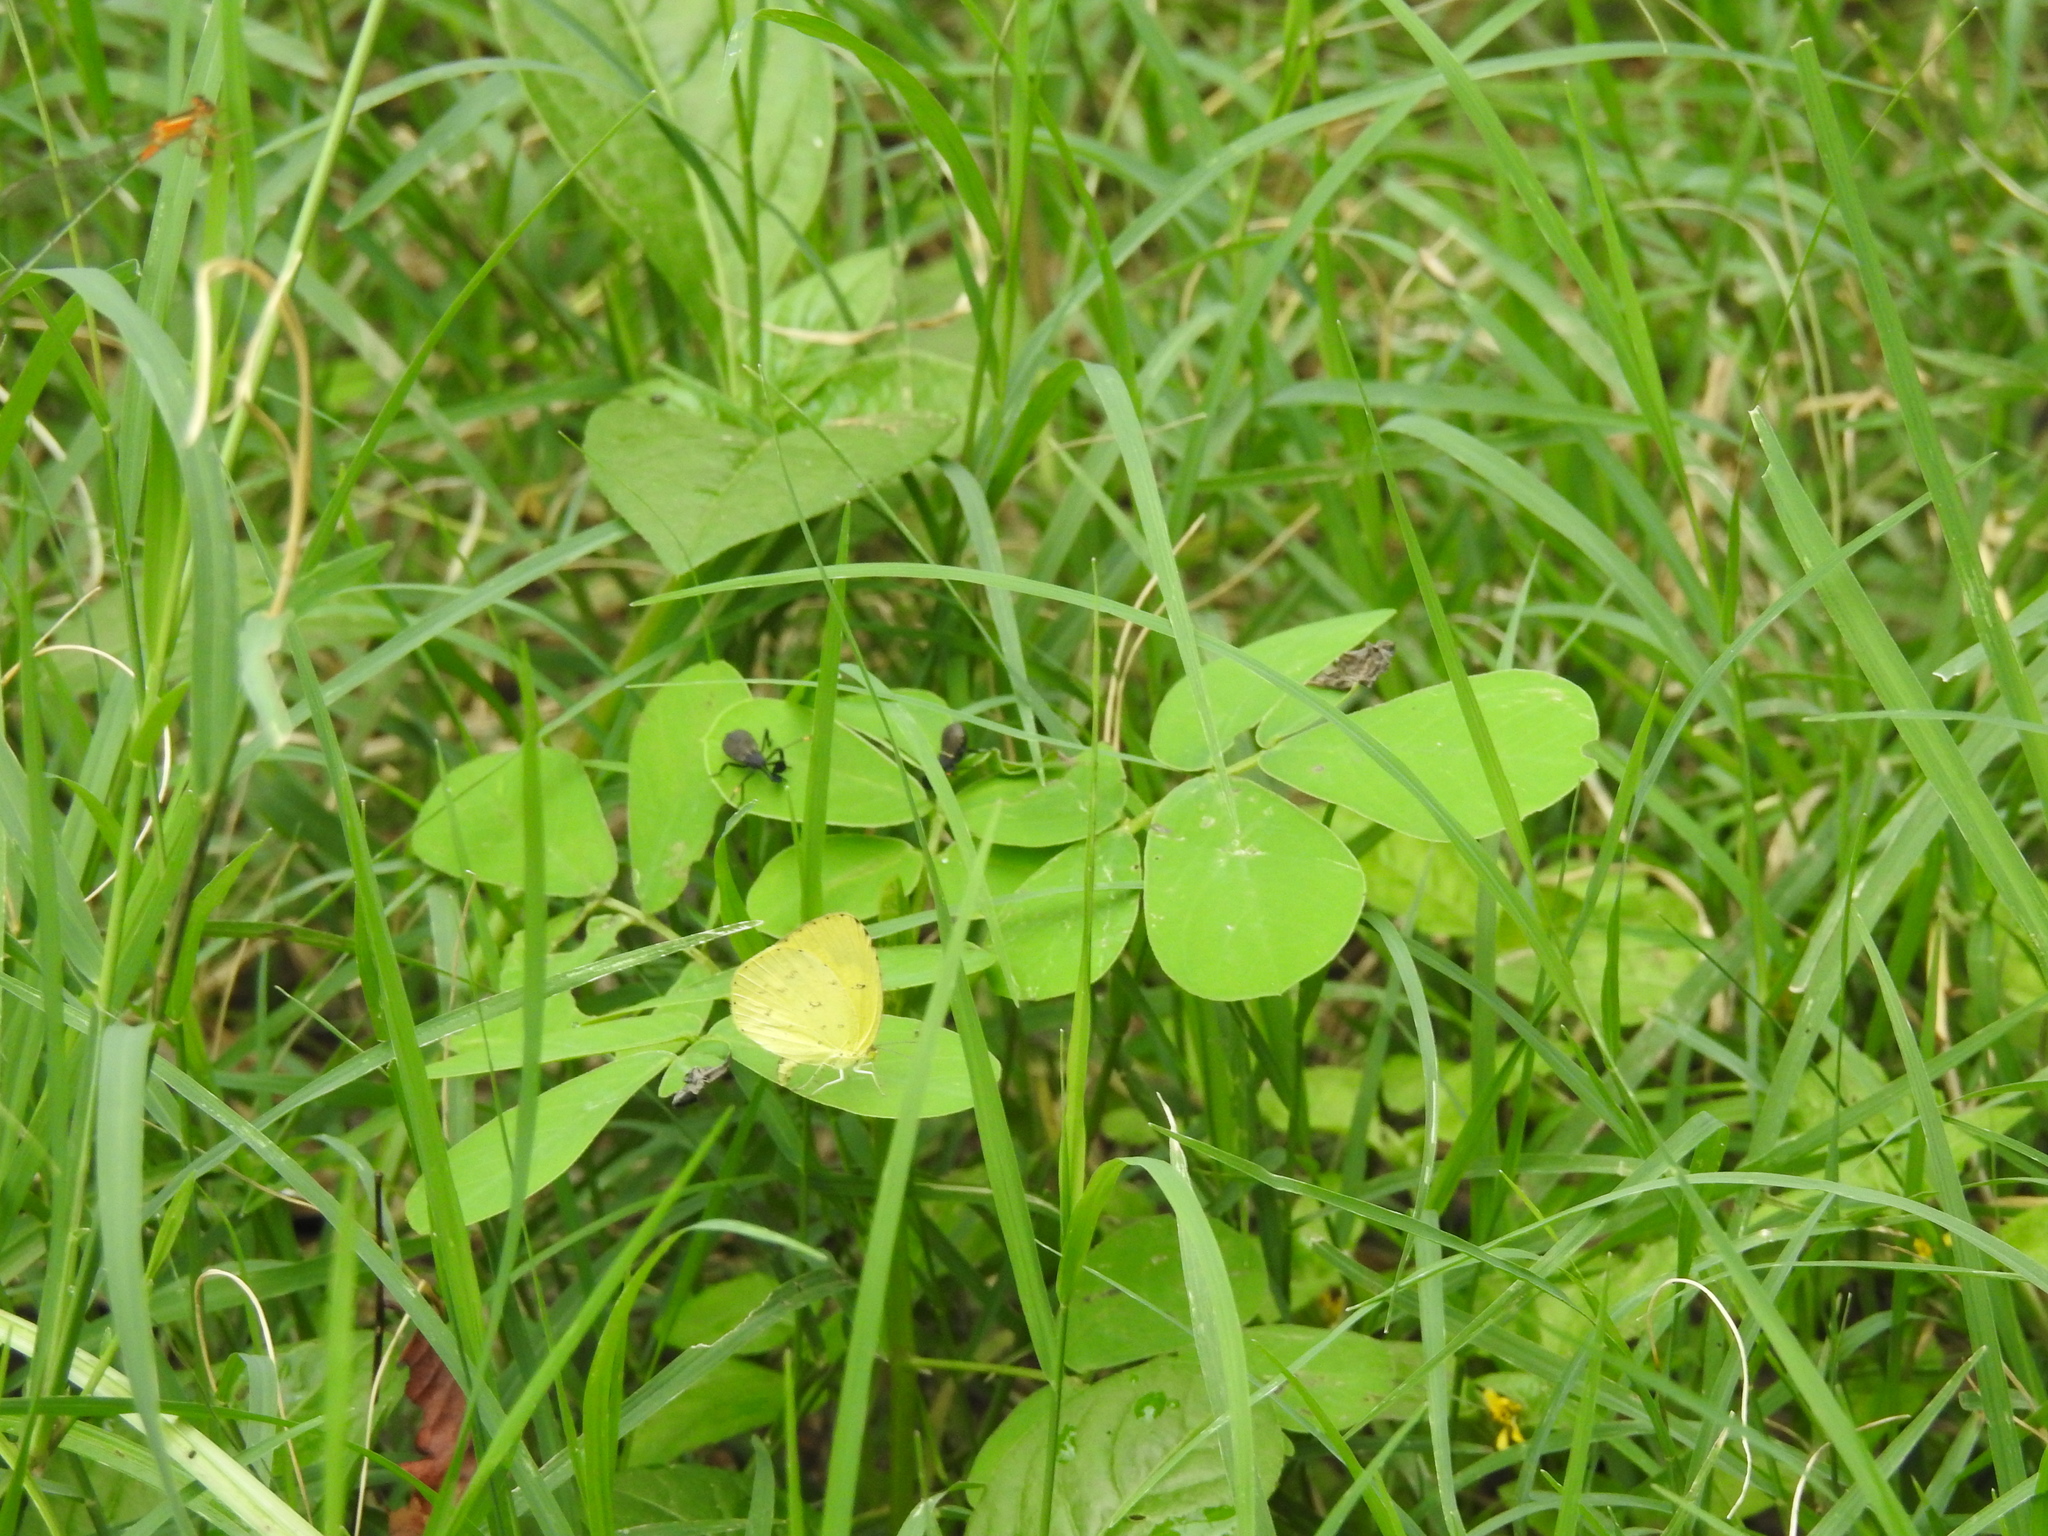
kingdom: Animalia
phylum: Arthropoda
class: Insecta
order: Lepidoptera
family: Pieridae
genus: Eurema
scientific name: Eurema hecabe
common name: Pale grass yellow
